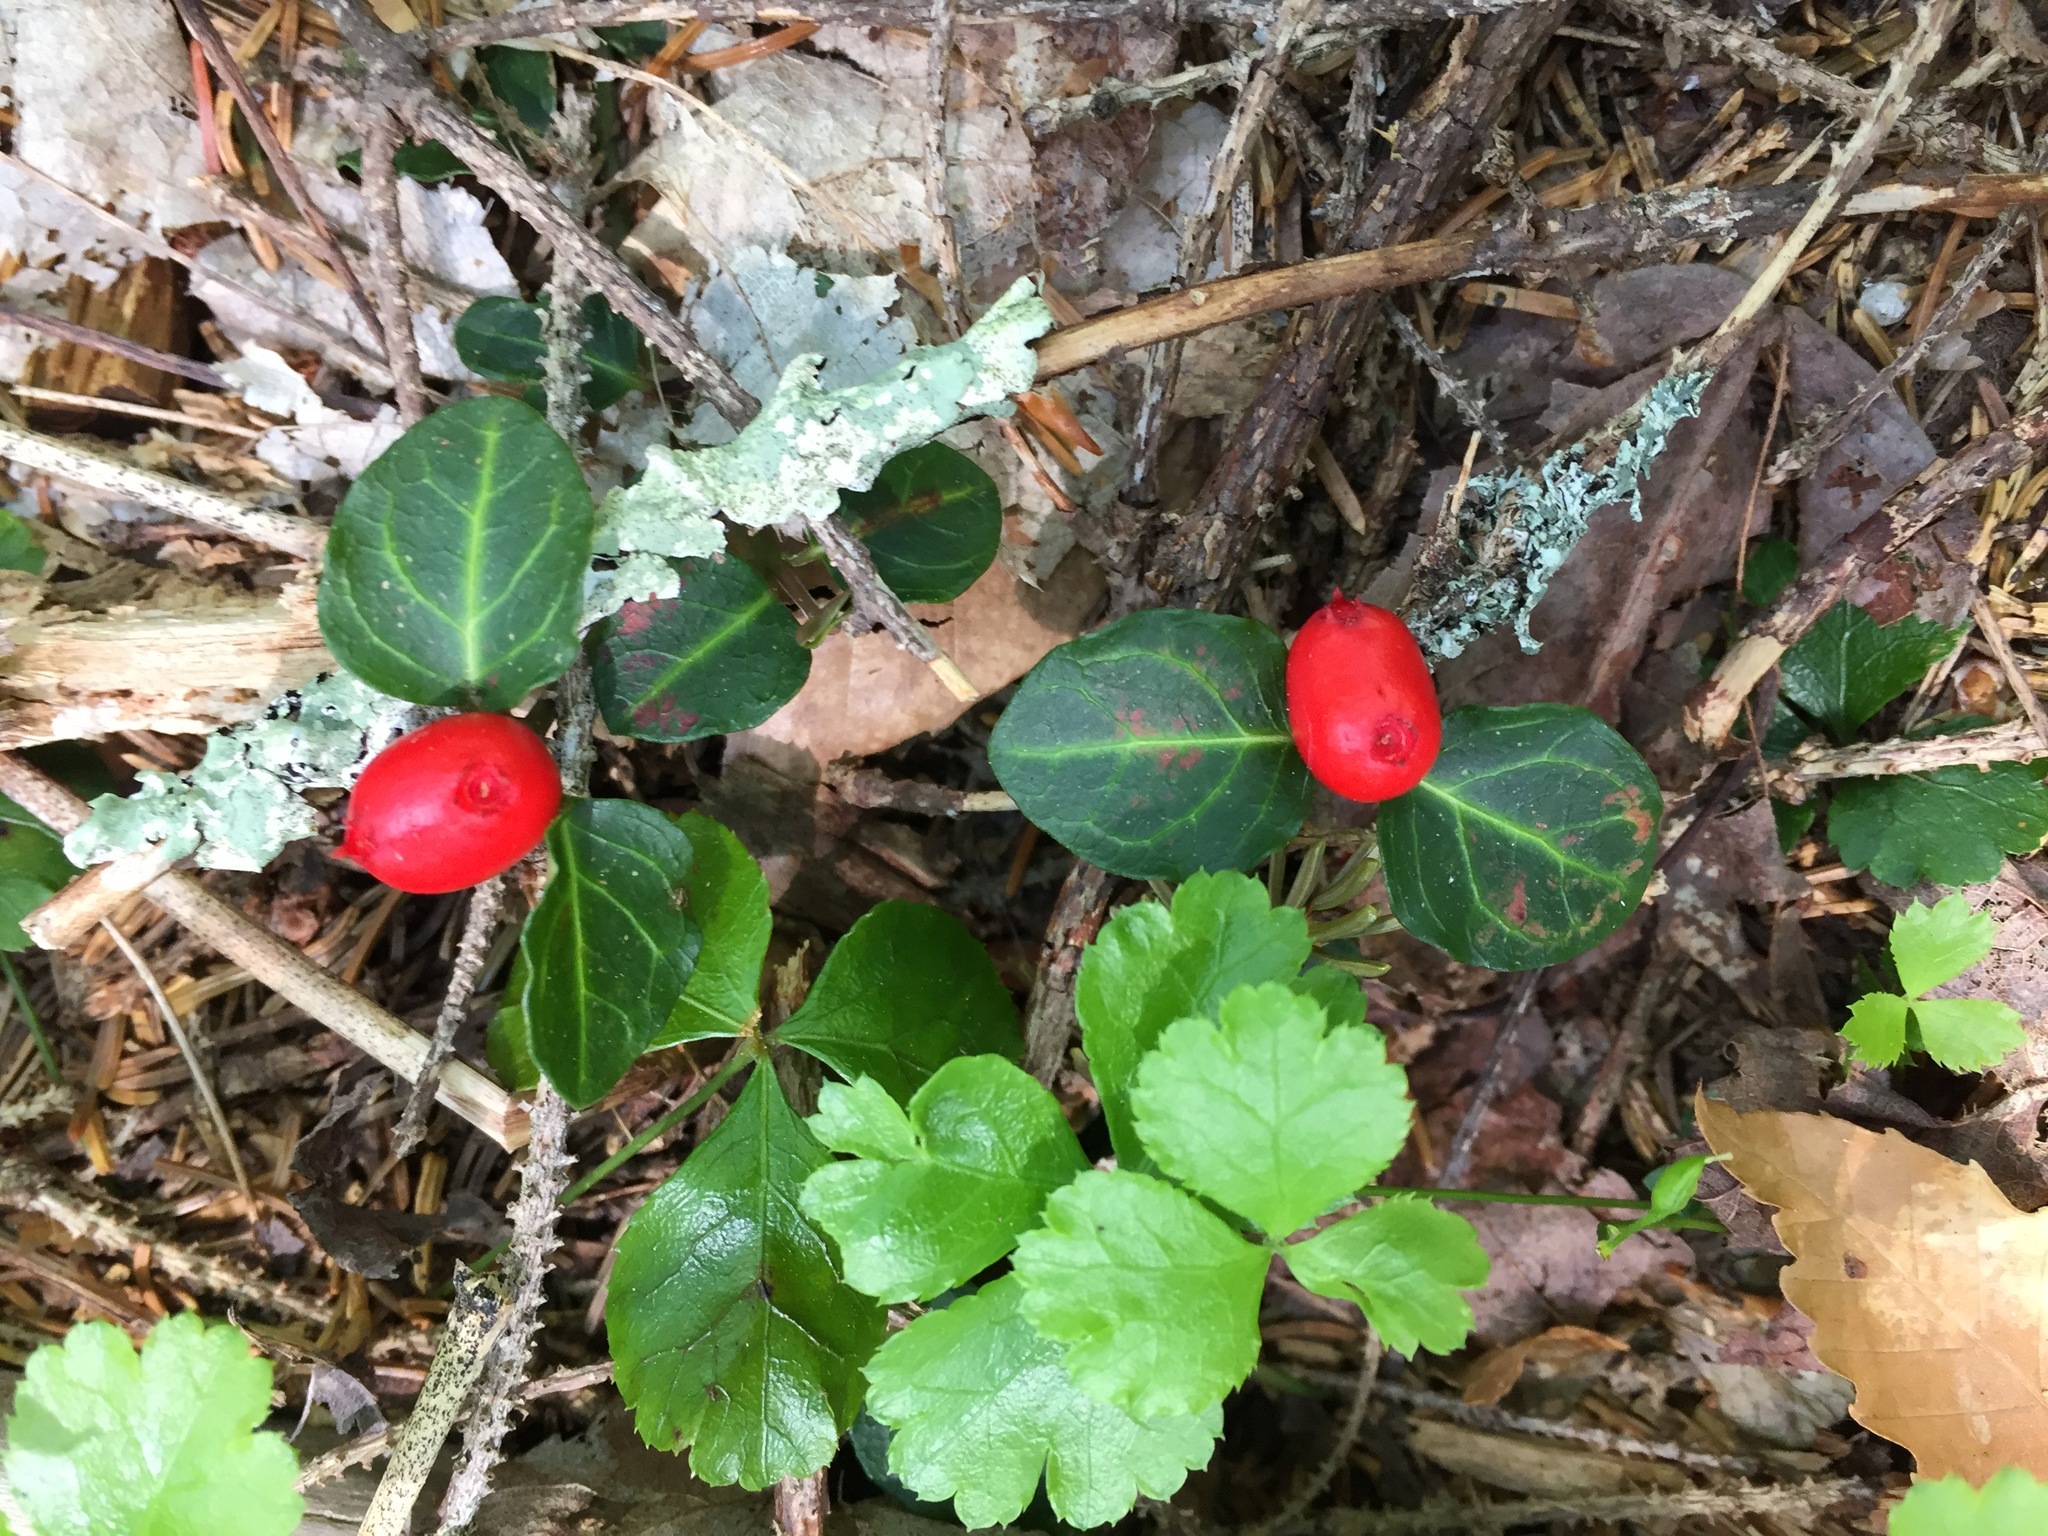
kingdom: Plantae
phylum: Tracheophyta
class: Magnoliopsida
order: Gentianales
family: Rubiaceae
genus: Mitchella
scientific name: Mitchella repens
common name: Partridge-berry
